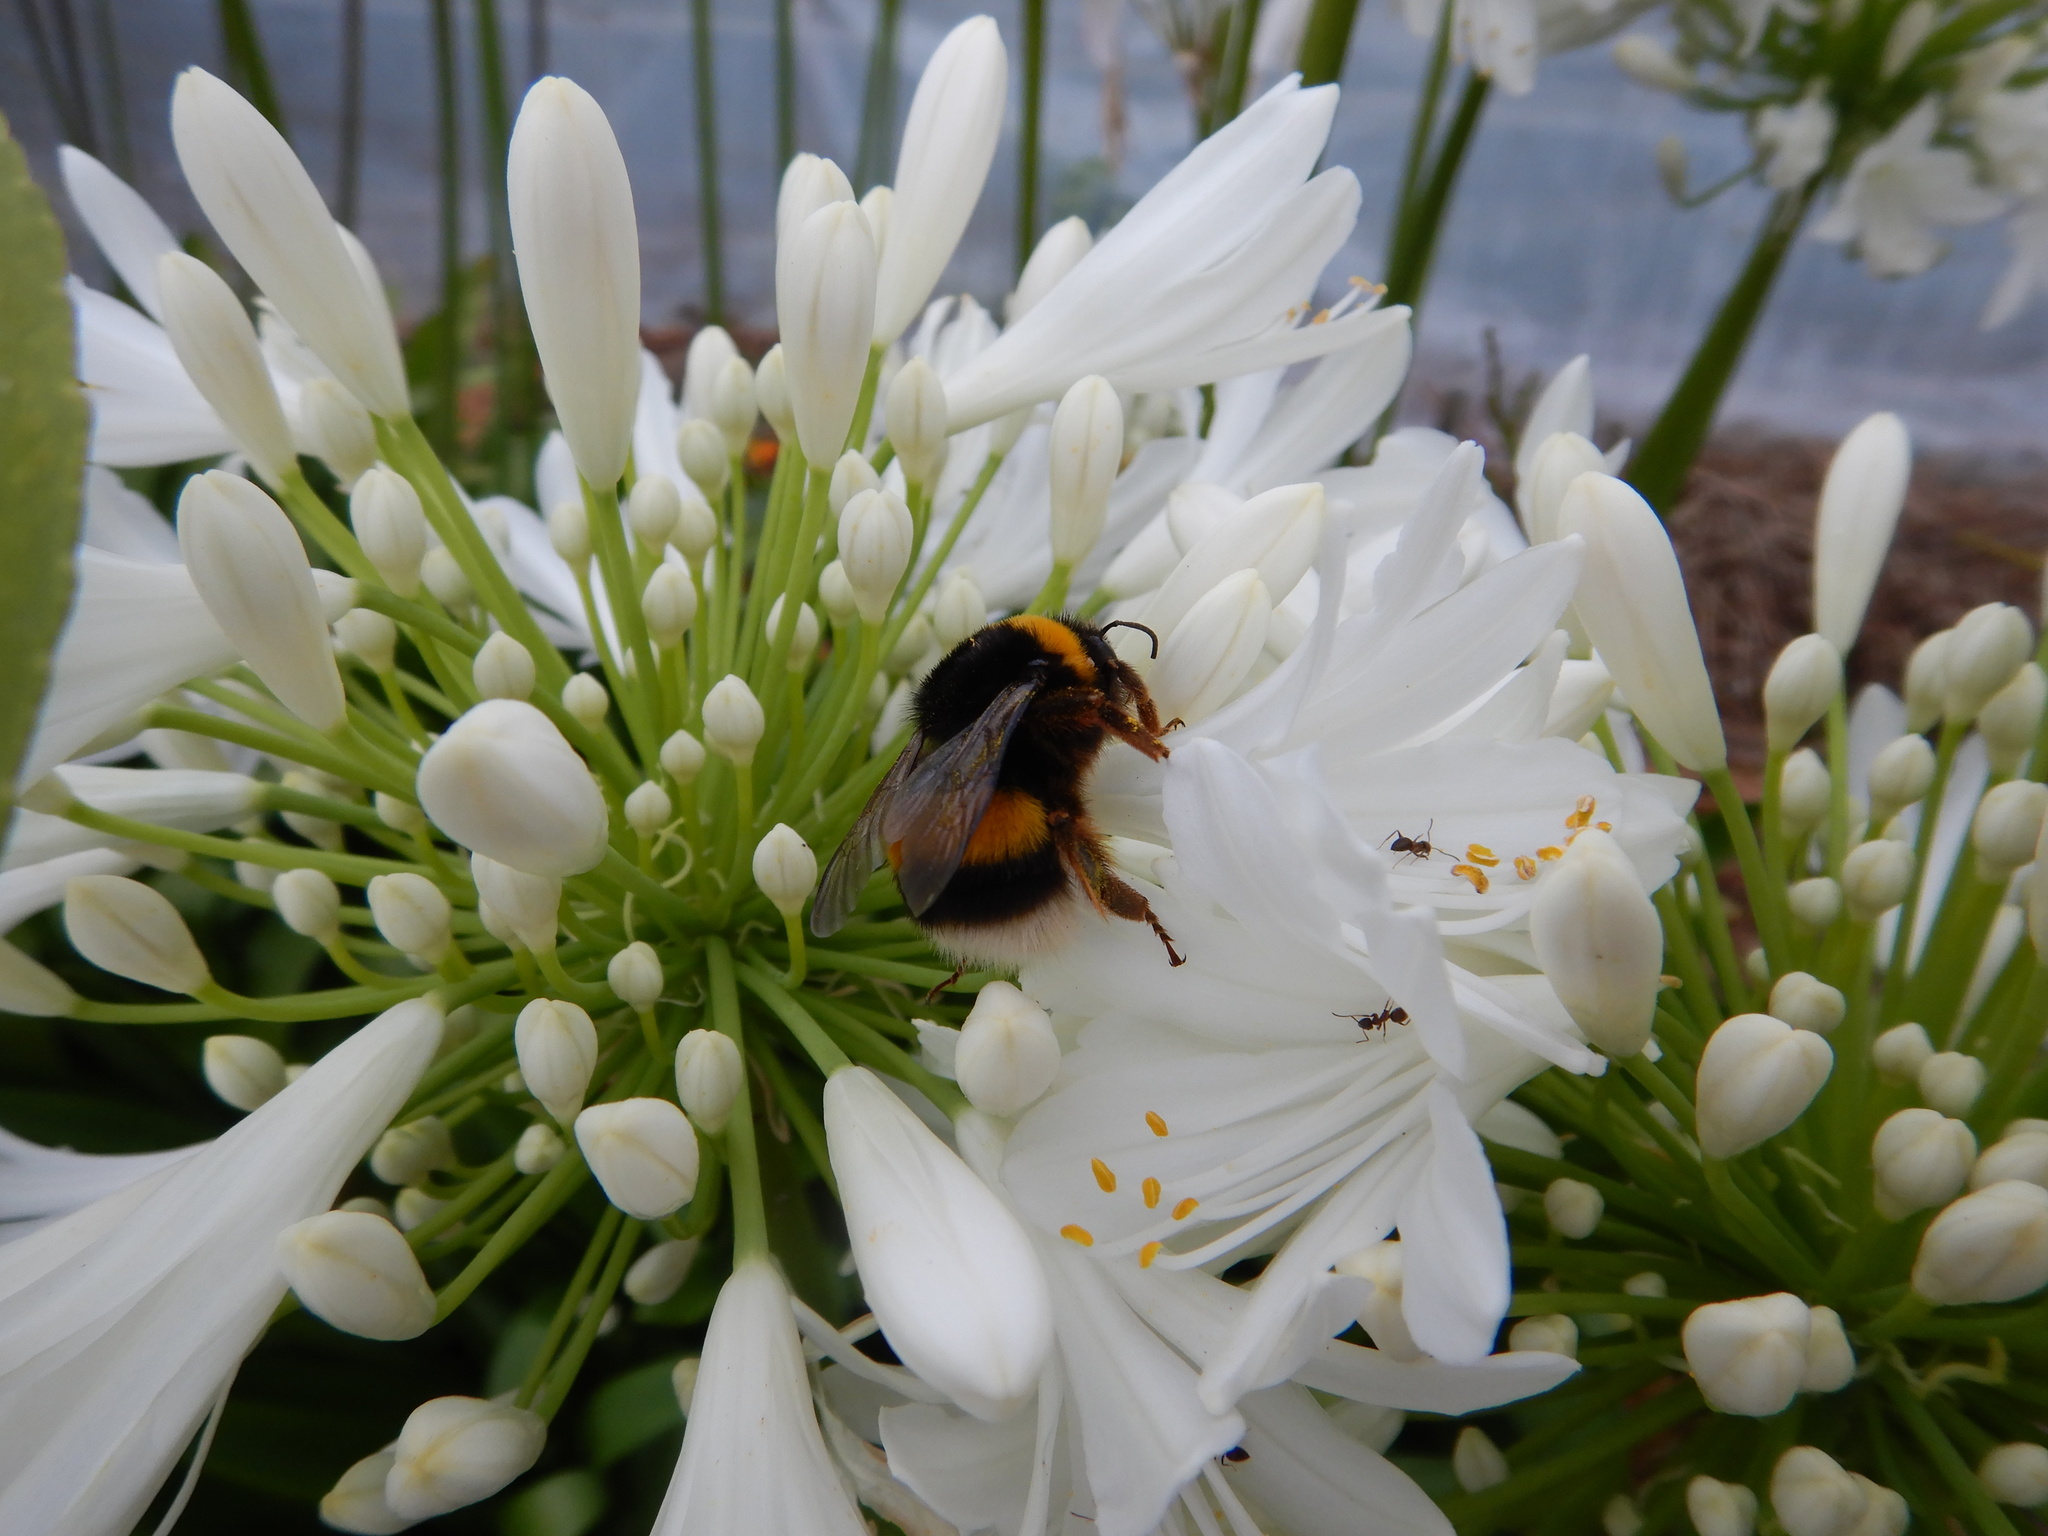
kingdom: Animalia
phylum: Arthropoda
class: Insecta
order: Hymenoptera
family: Apidae
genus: Bombus
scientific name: Bombus terrestris
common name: Buff-tailed bumblebee
